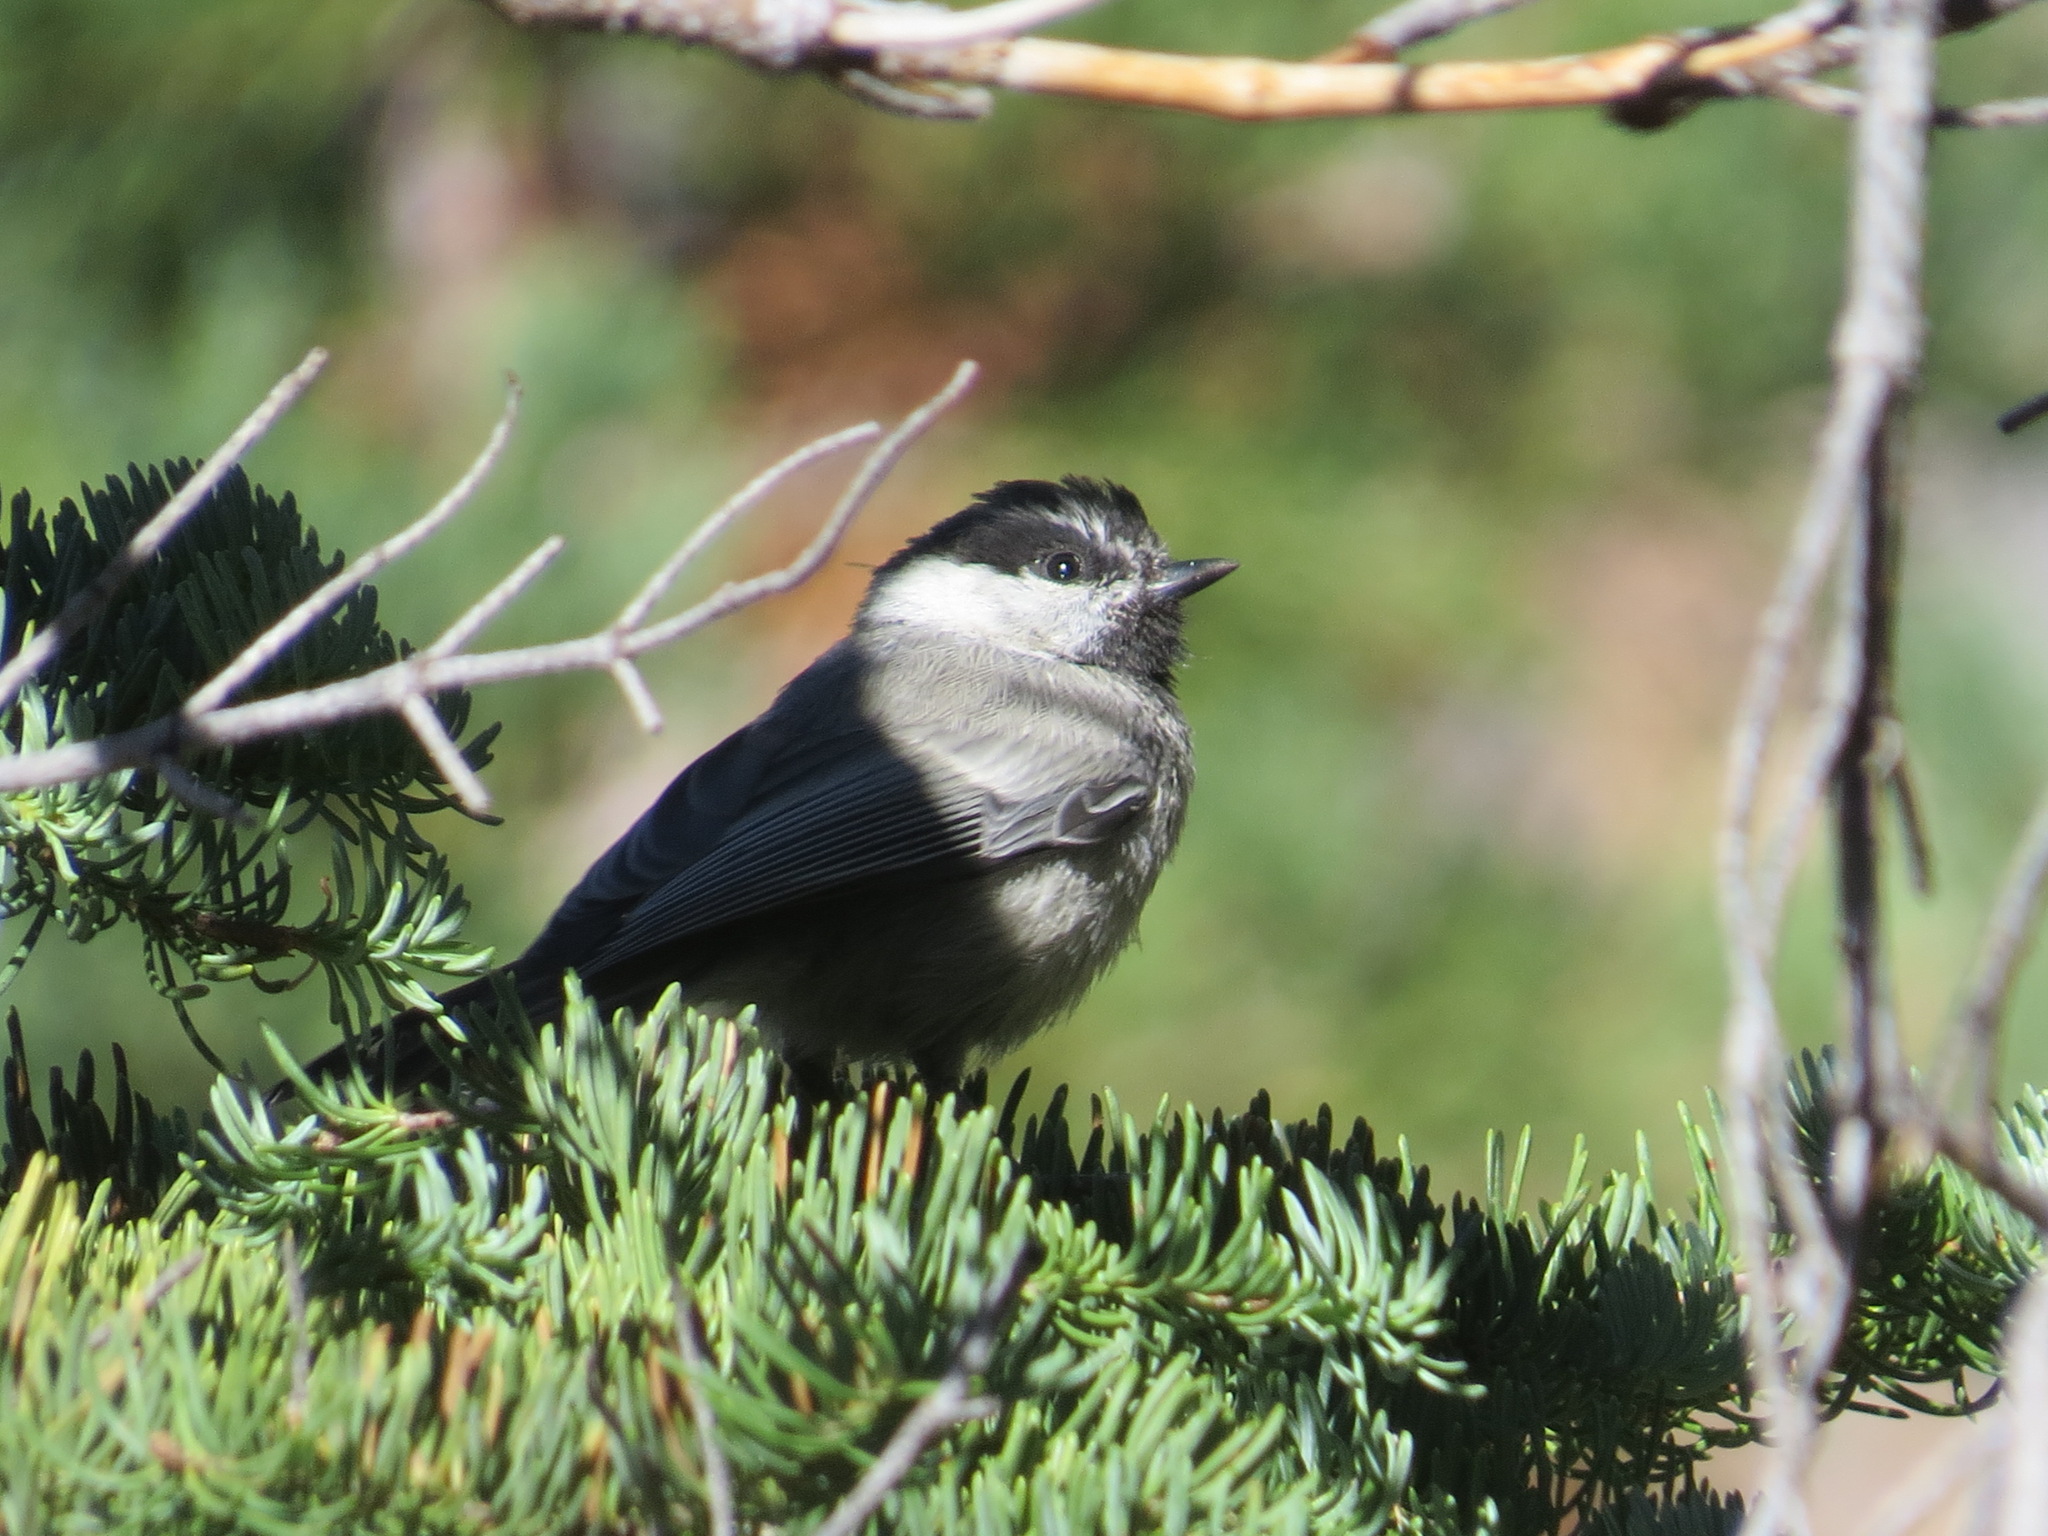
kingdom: Animalia
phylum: Chordata
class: Aves
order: Passeriformes
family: Paridae
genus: Poecile
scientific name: Poecile gambeli
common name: Mountain chickadee
